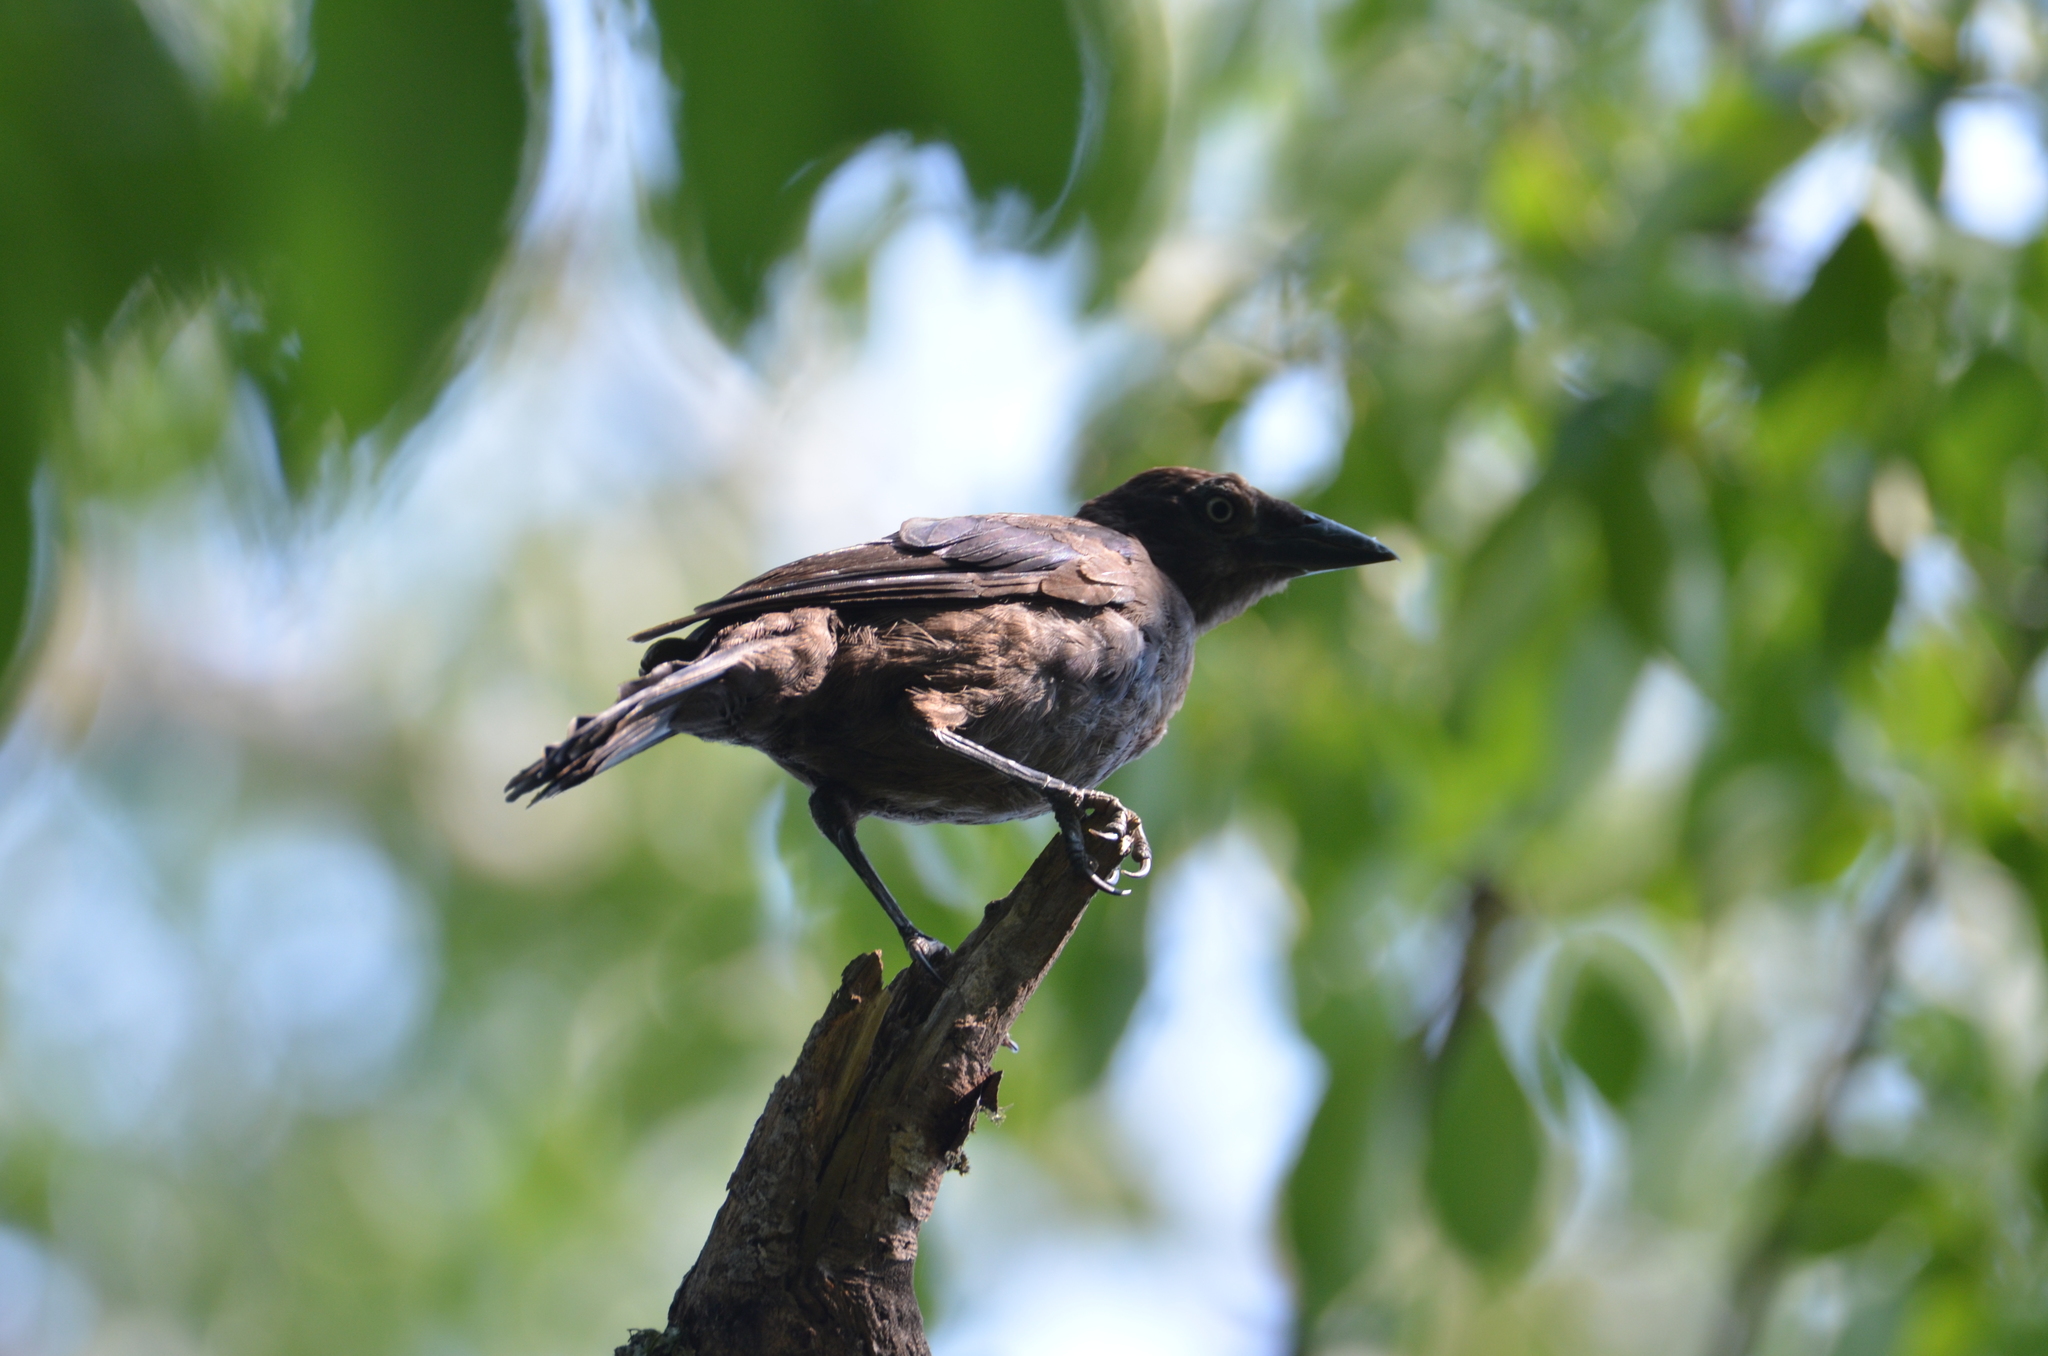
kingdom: Animalia
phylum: Chordata
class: Aves
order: Passeriformes
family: Icteridae
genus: Quiscalus
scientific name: Quiscalus quiscula
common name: Common grackle
